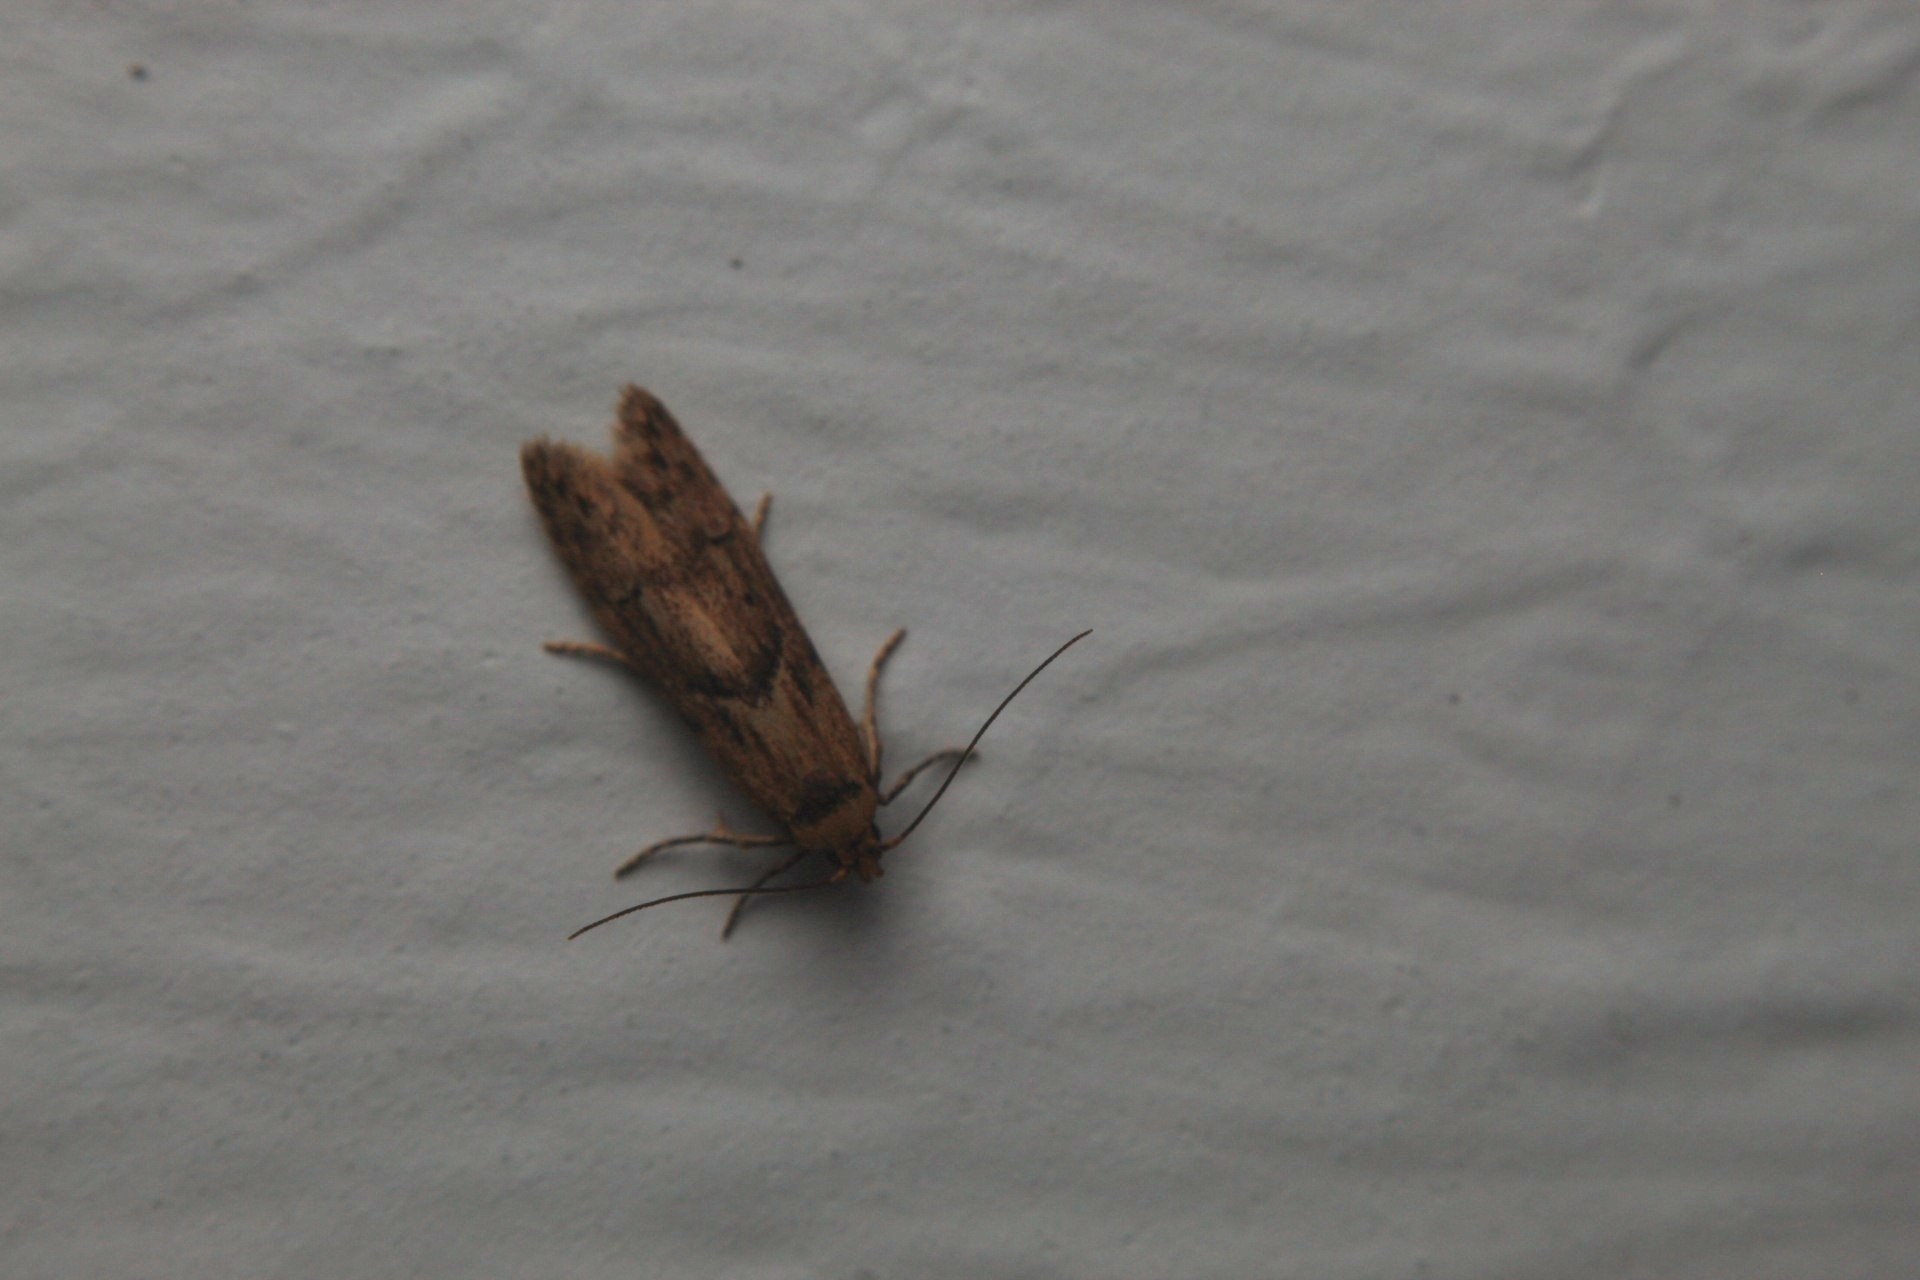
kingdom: Animalia
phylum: Arthropoda
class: Insecta
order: Lepidoptera
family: Blastobasidae
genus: Blastobasis
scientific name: Blastobasis adustella
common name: Dingy dowd
